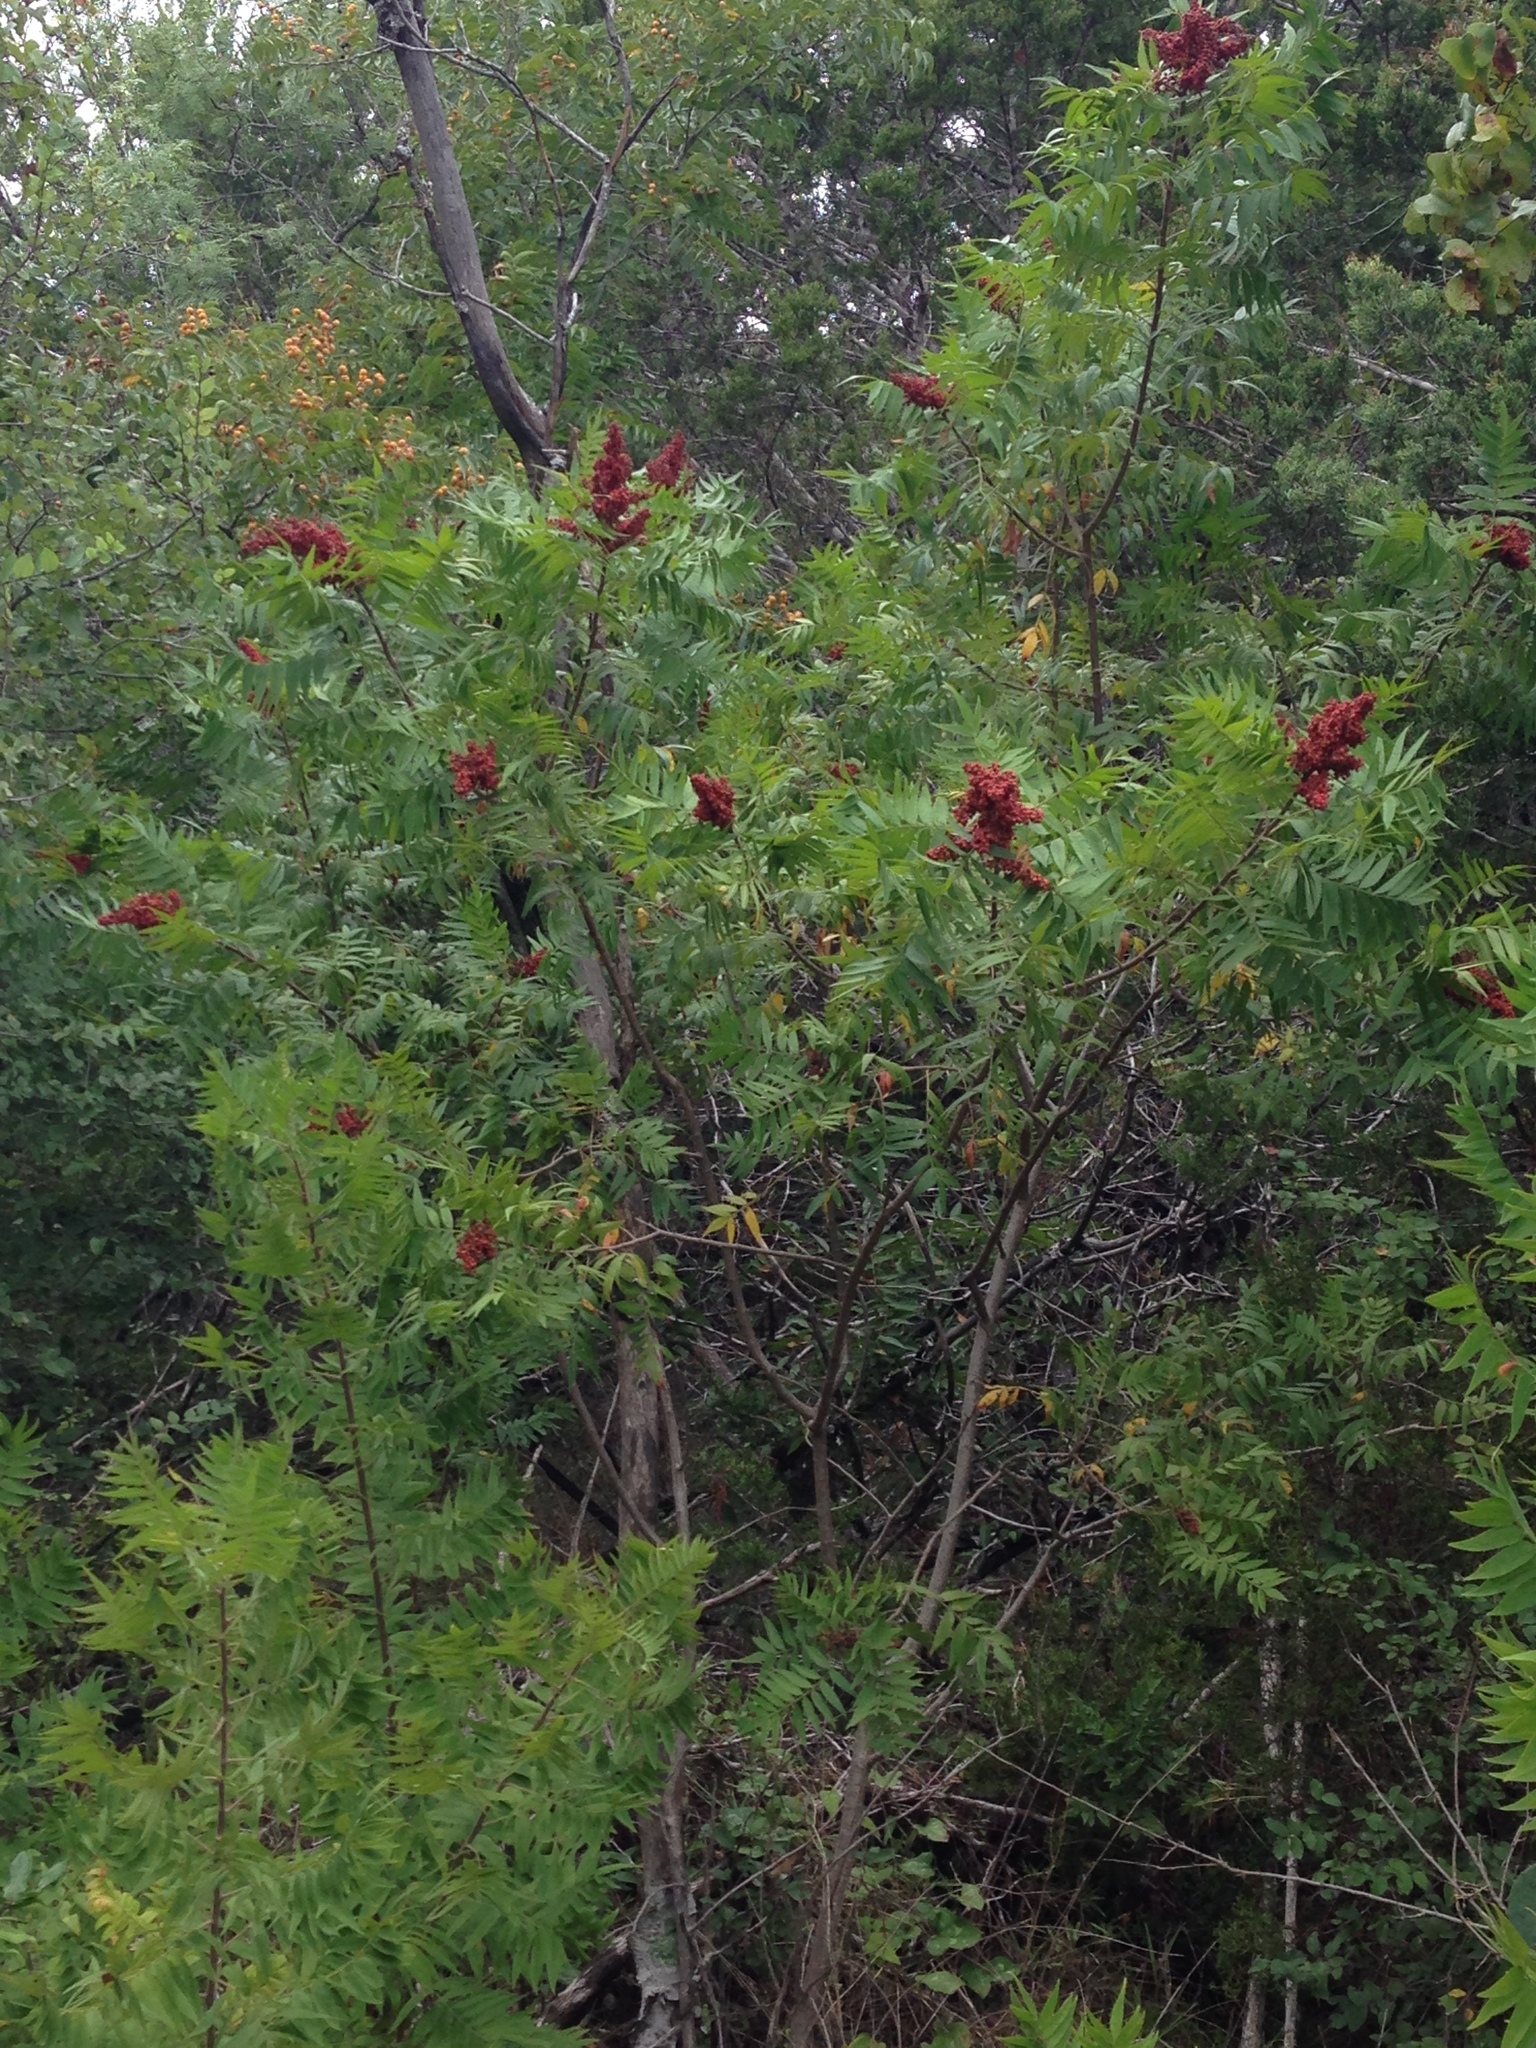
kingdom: Plantae
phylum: Tracheophyta
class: Magnoliopsida
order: Sapindales
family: Anacardiaceae
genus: Rhus
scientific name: Rhus lanceolata
